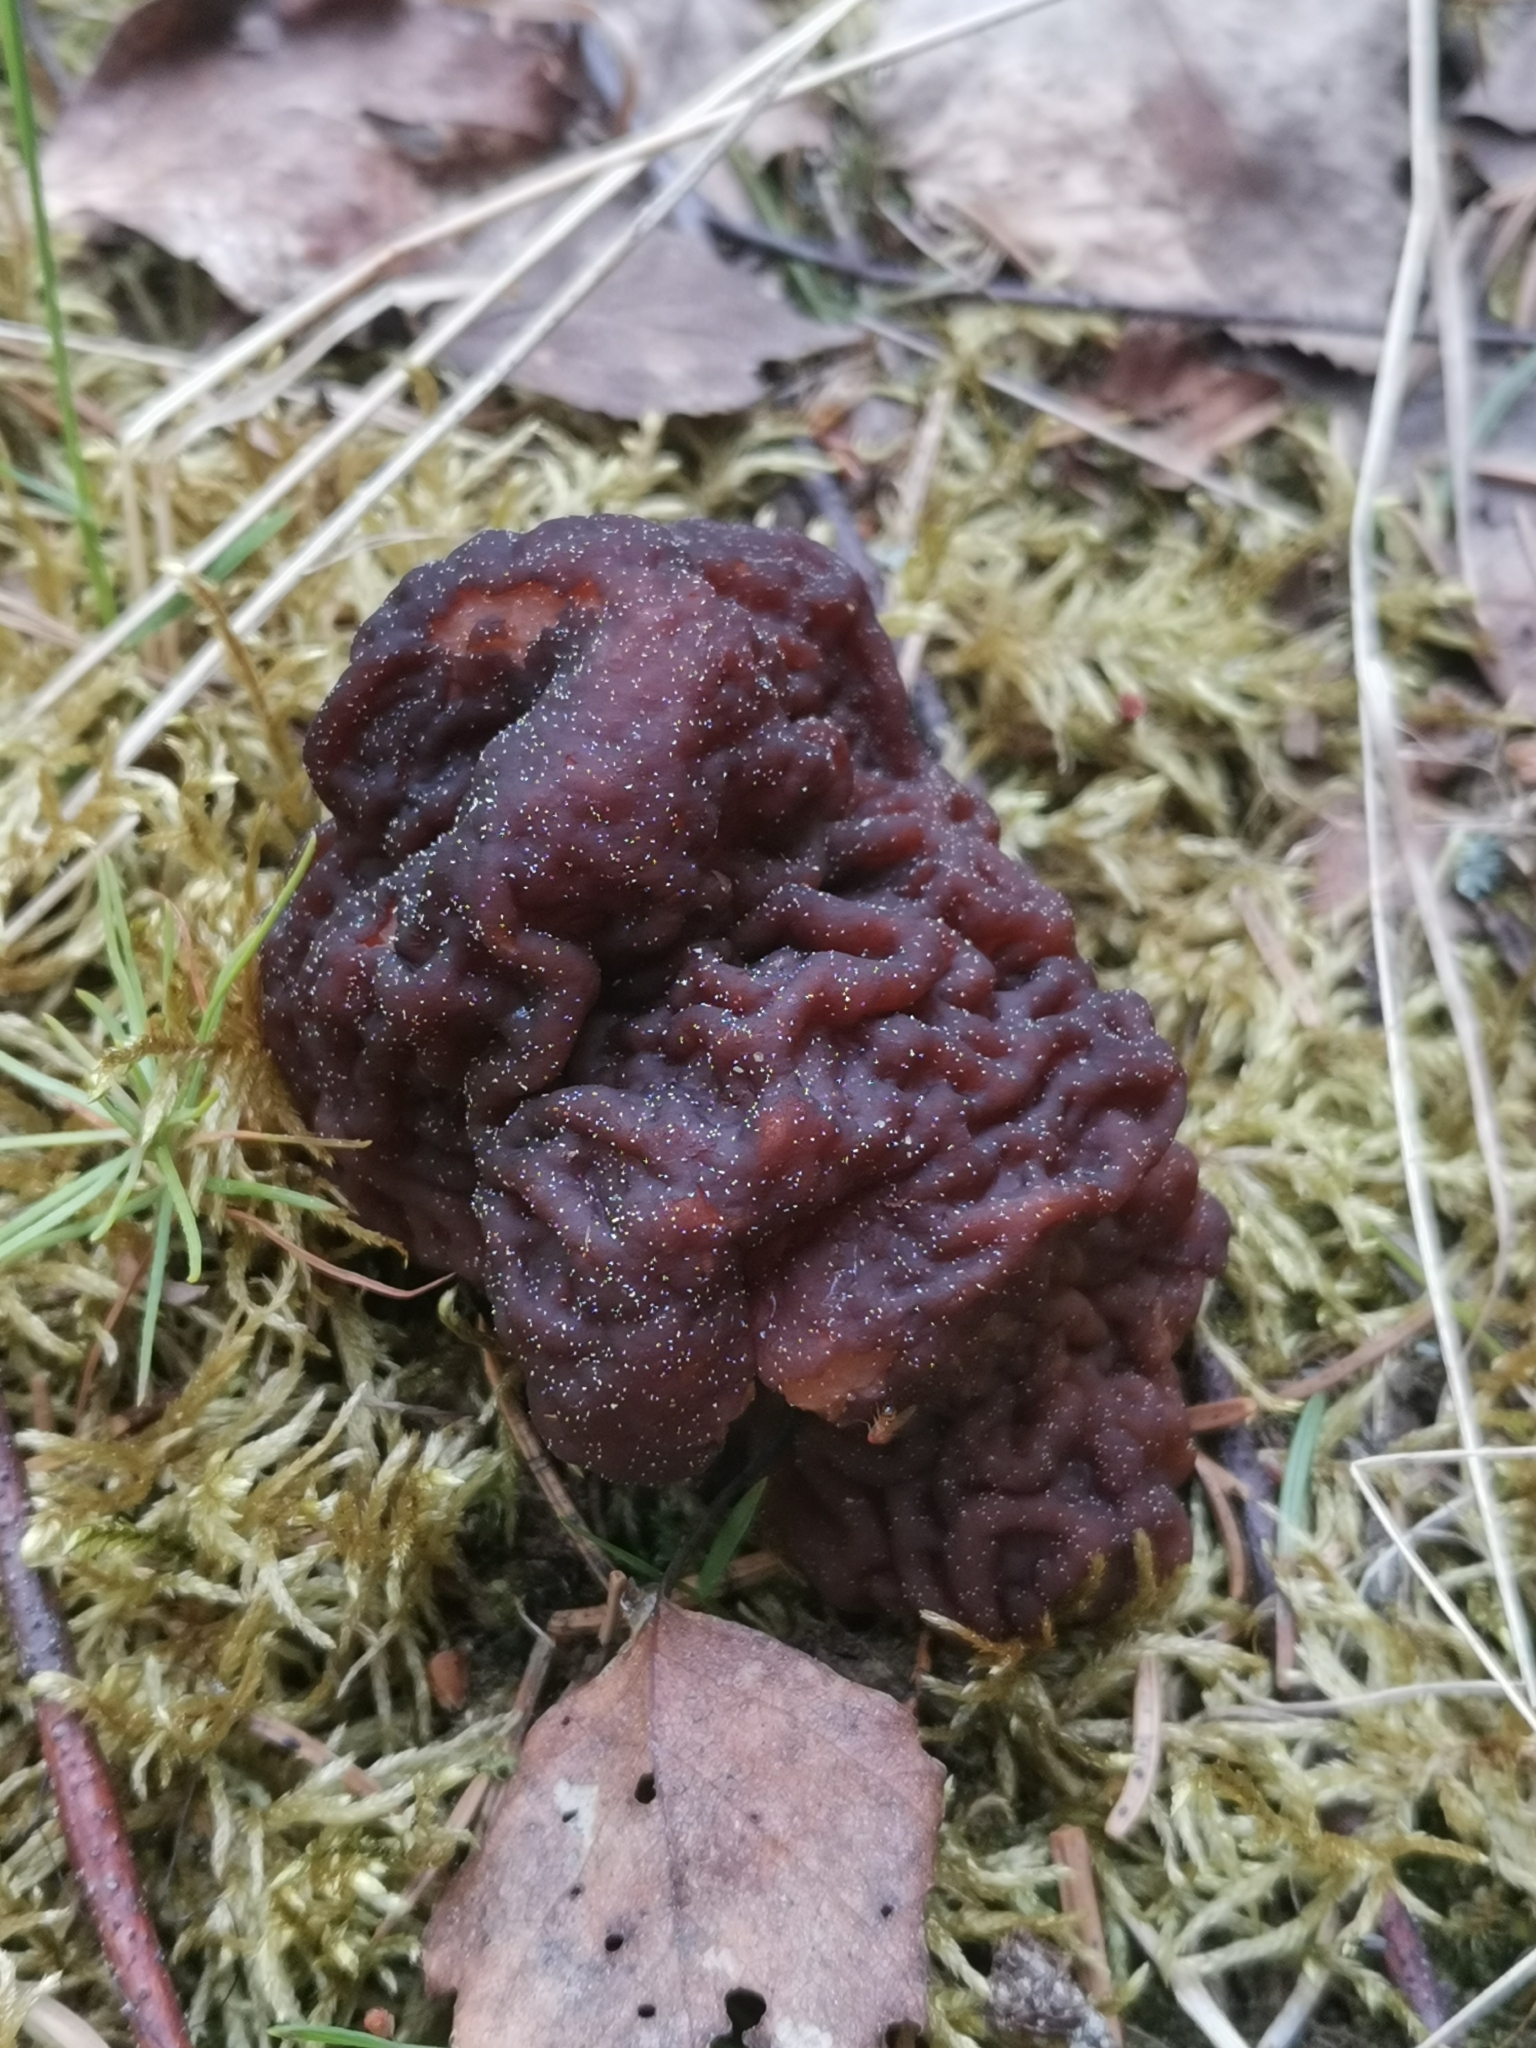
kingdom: Fungi
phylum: Ascomycota
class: Pezizomycetes
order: Pezizales
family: Discinaceae
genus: Gyromitra
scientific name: Gyromitra esculenta
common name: False morel
